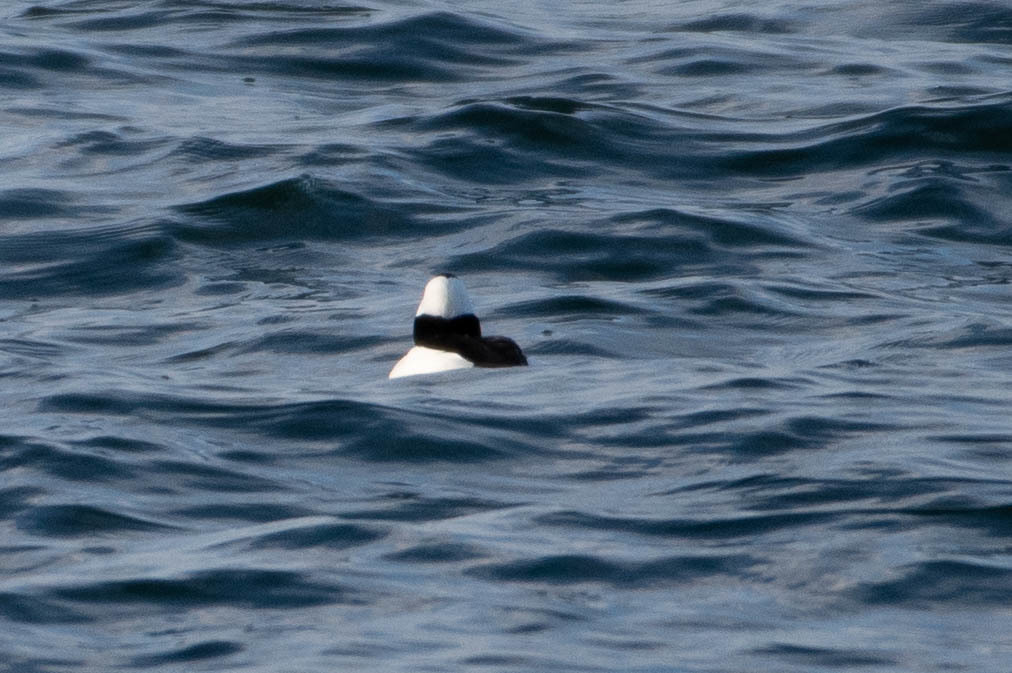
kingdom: Animalia
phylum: Chordata
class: Aves
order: Anseriformes
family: Anatidae
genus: Bucephala
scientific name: Bucephala albeola
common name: Bufflehead
